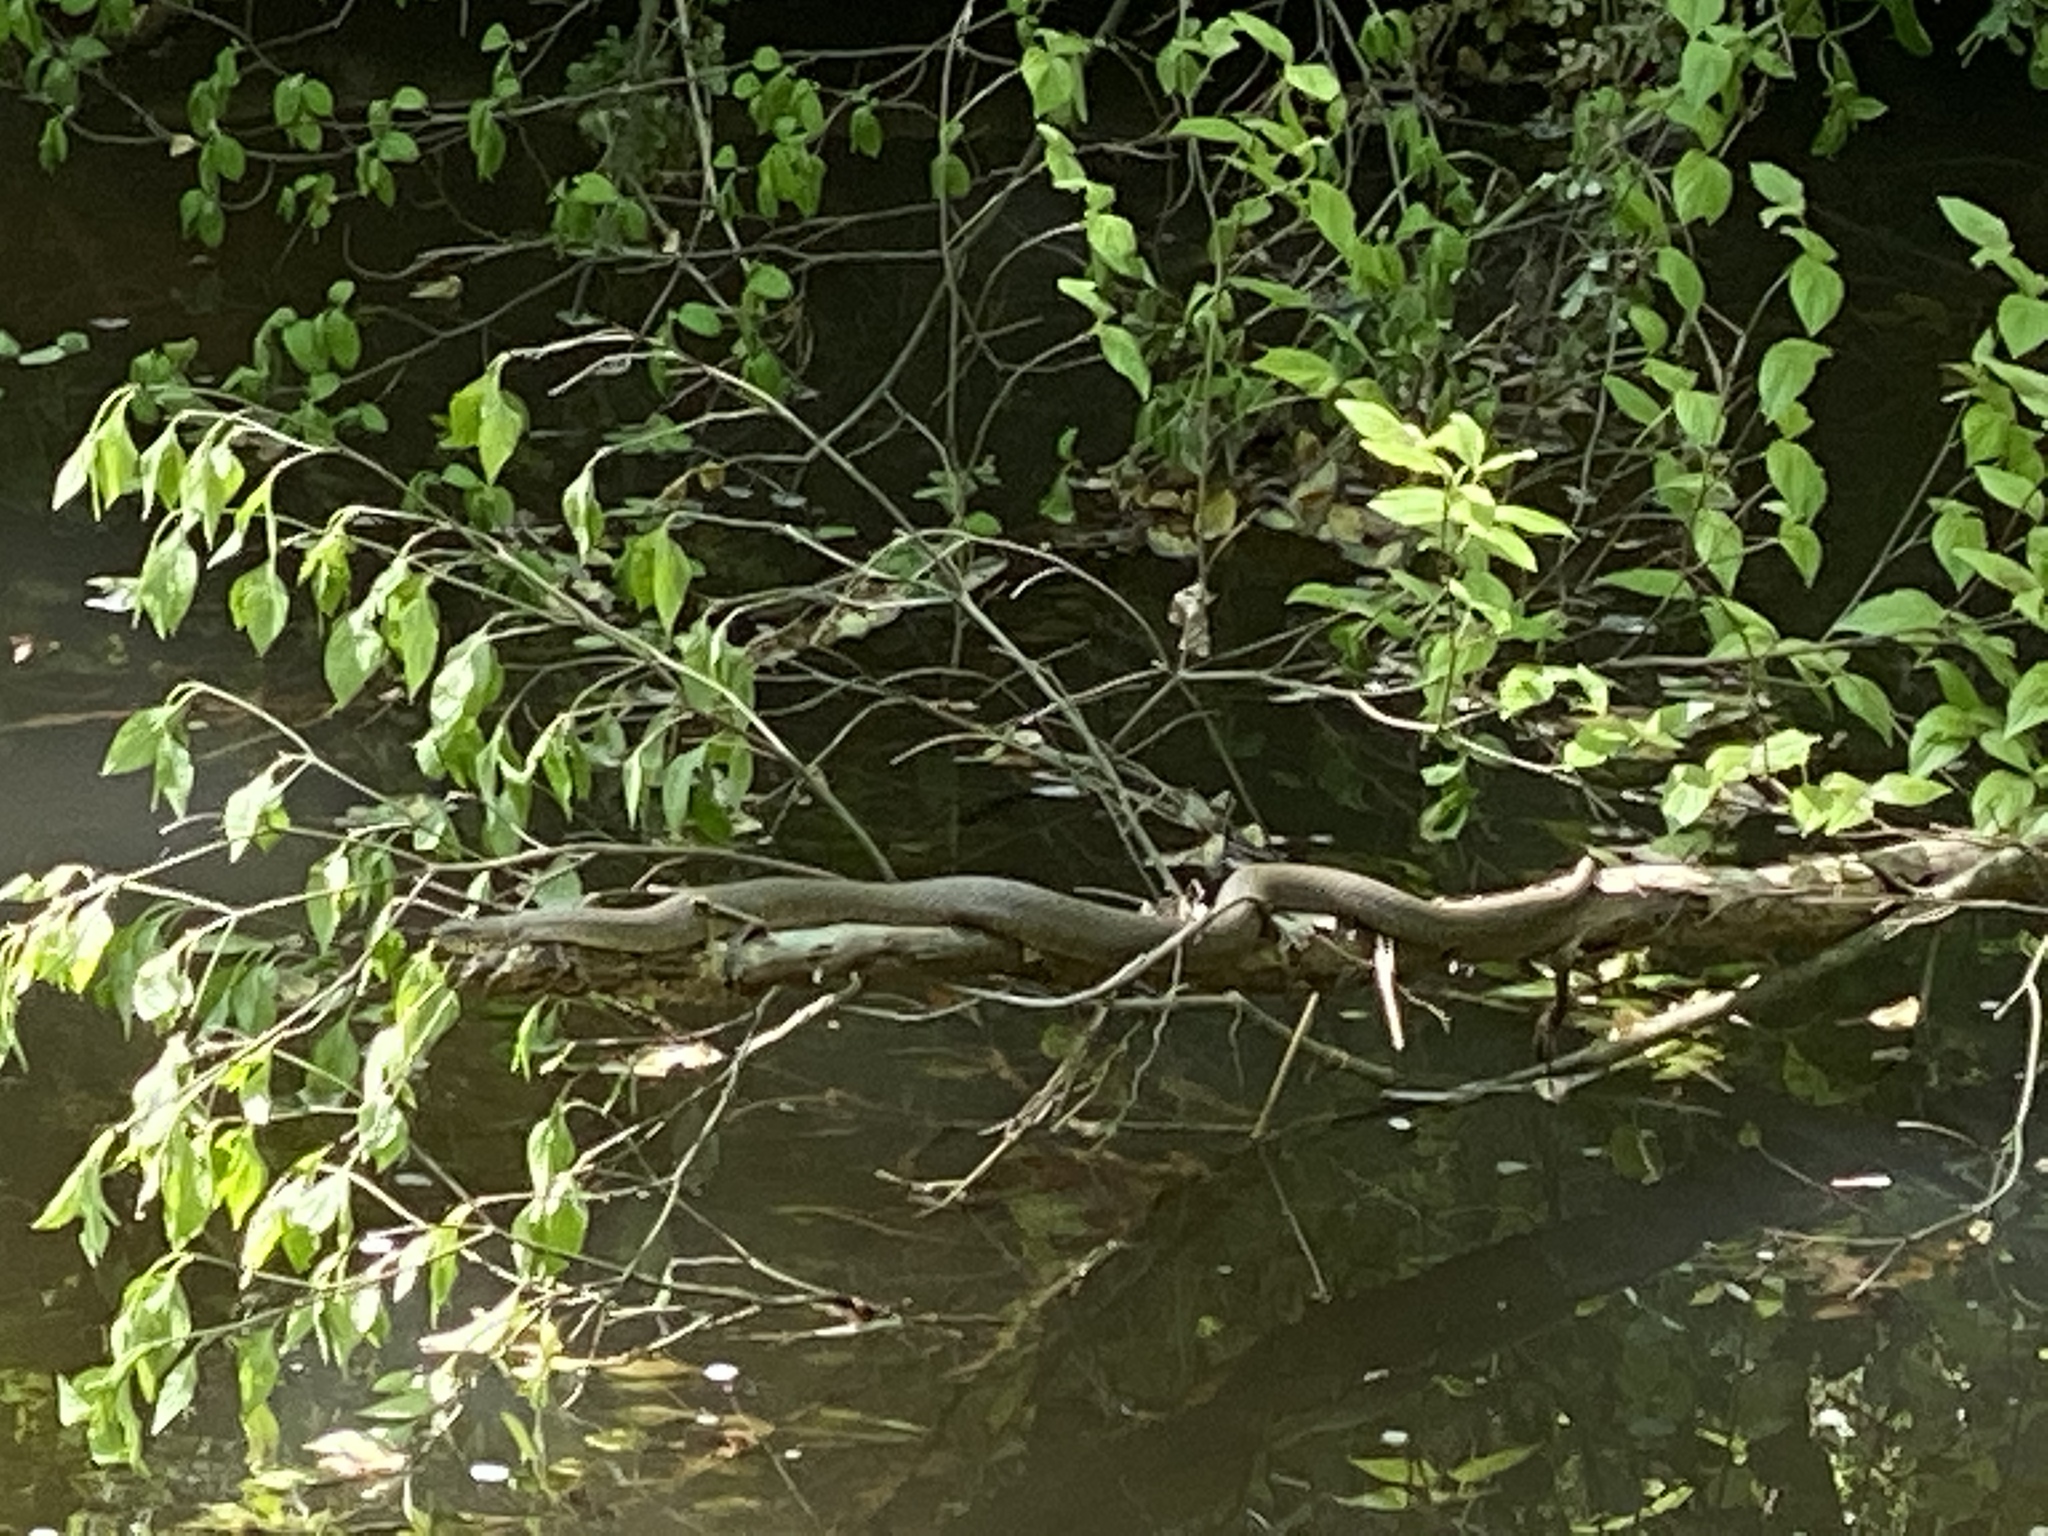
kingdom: Animalia
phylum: Chordata
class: Squamata
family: Colubridae
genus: Nerodia
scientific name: Nerodia sipedon
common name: Northern water snake
